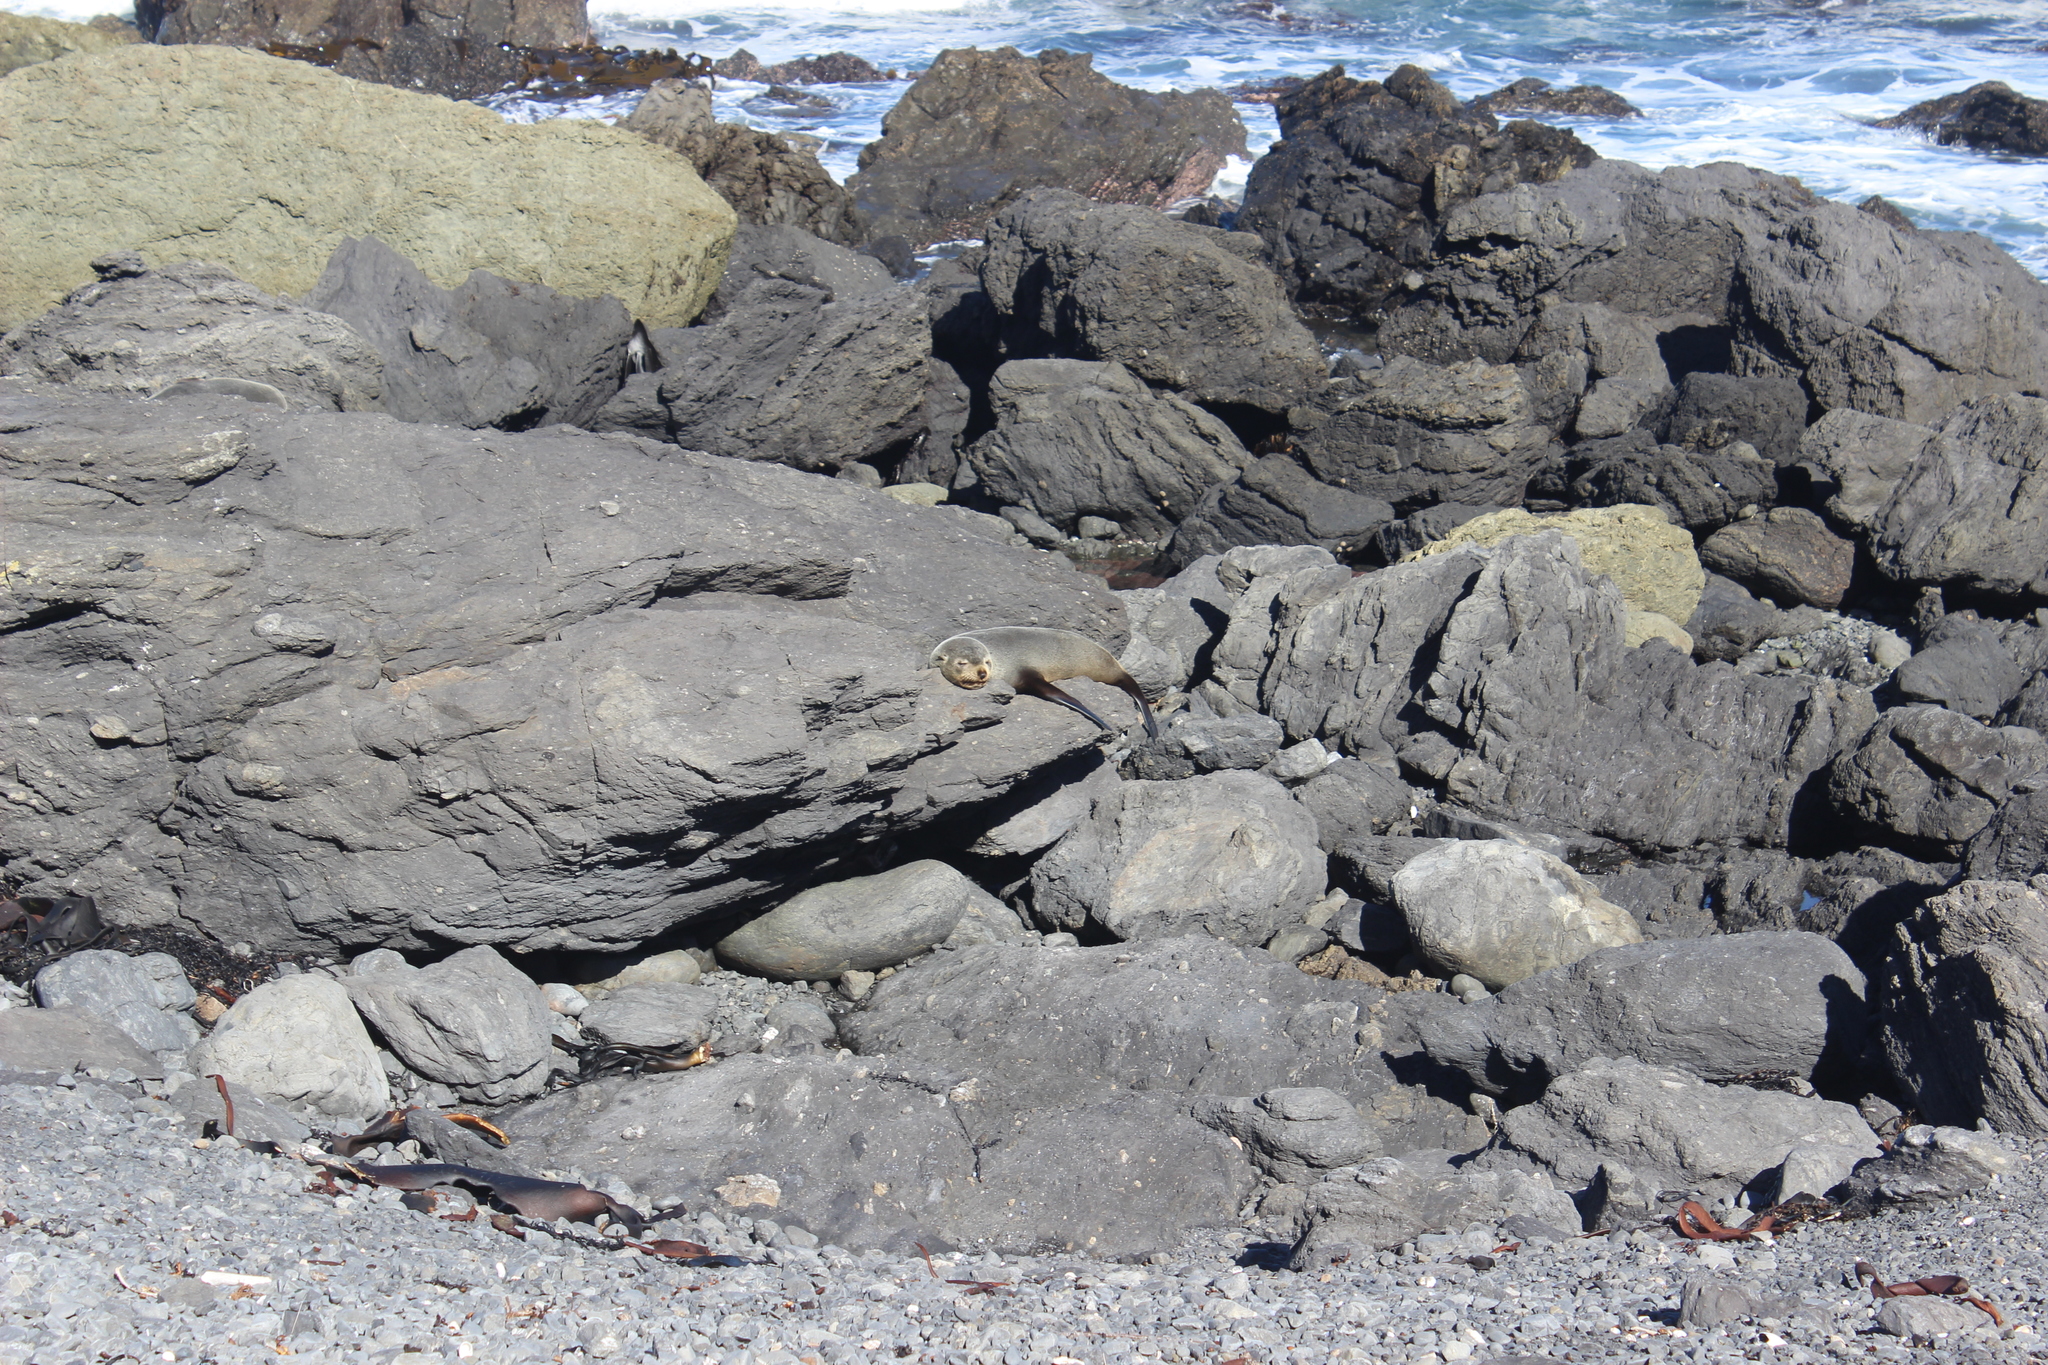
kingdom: Animalia
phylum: Chordata
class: Mammalia
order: Carnivora
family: Otariidae
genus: Arctocephalus
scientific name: Arctocephalus forsteri
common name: New zealand fur seal
